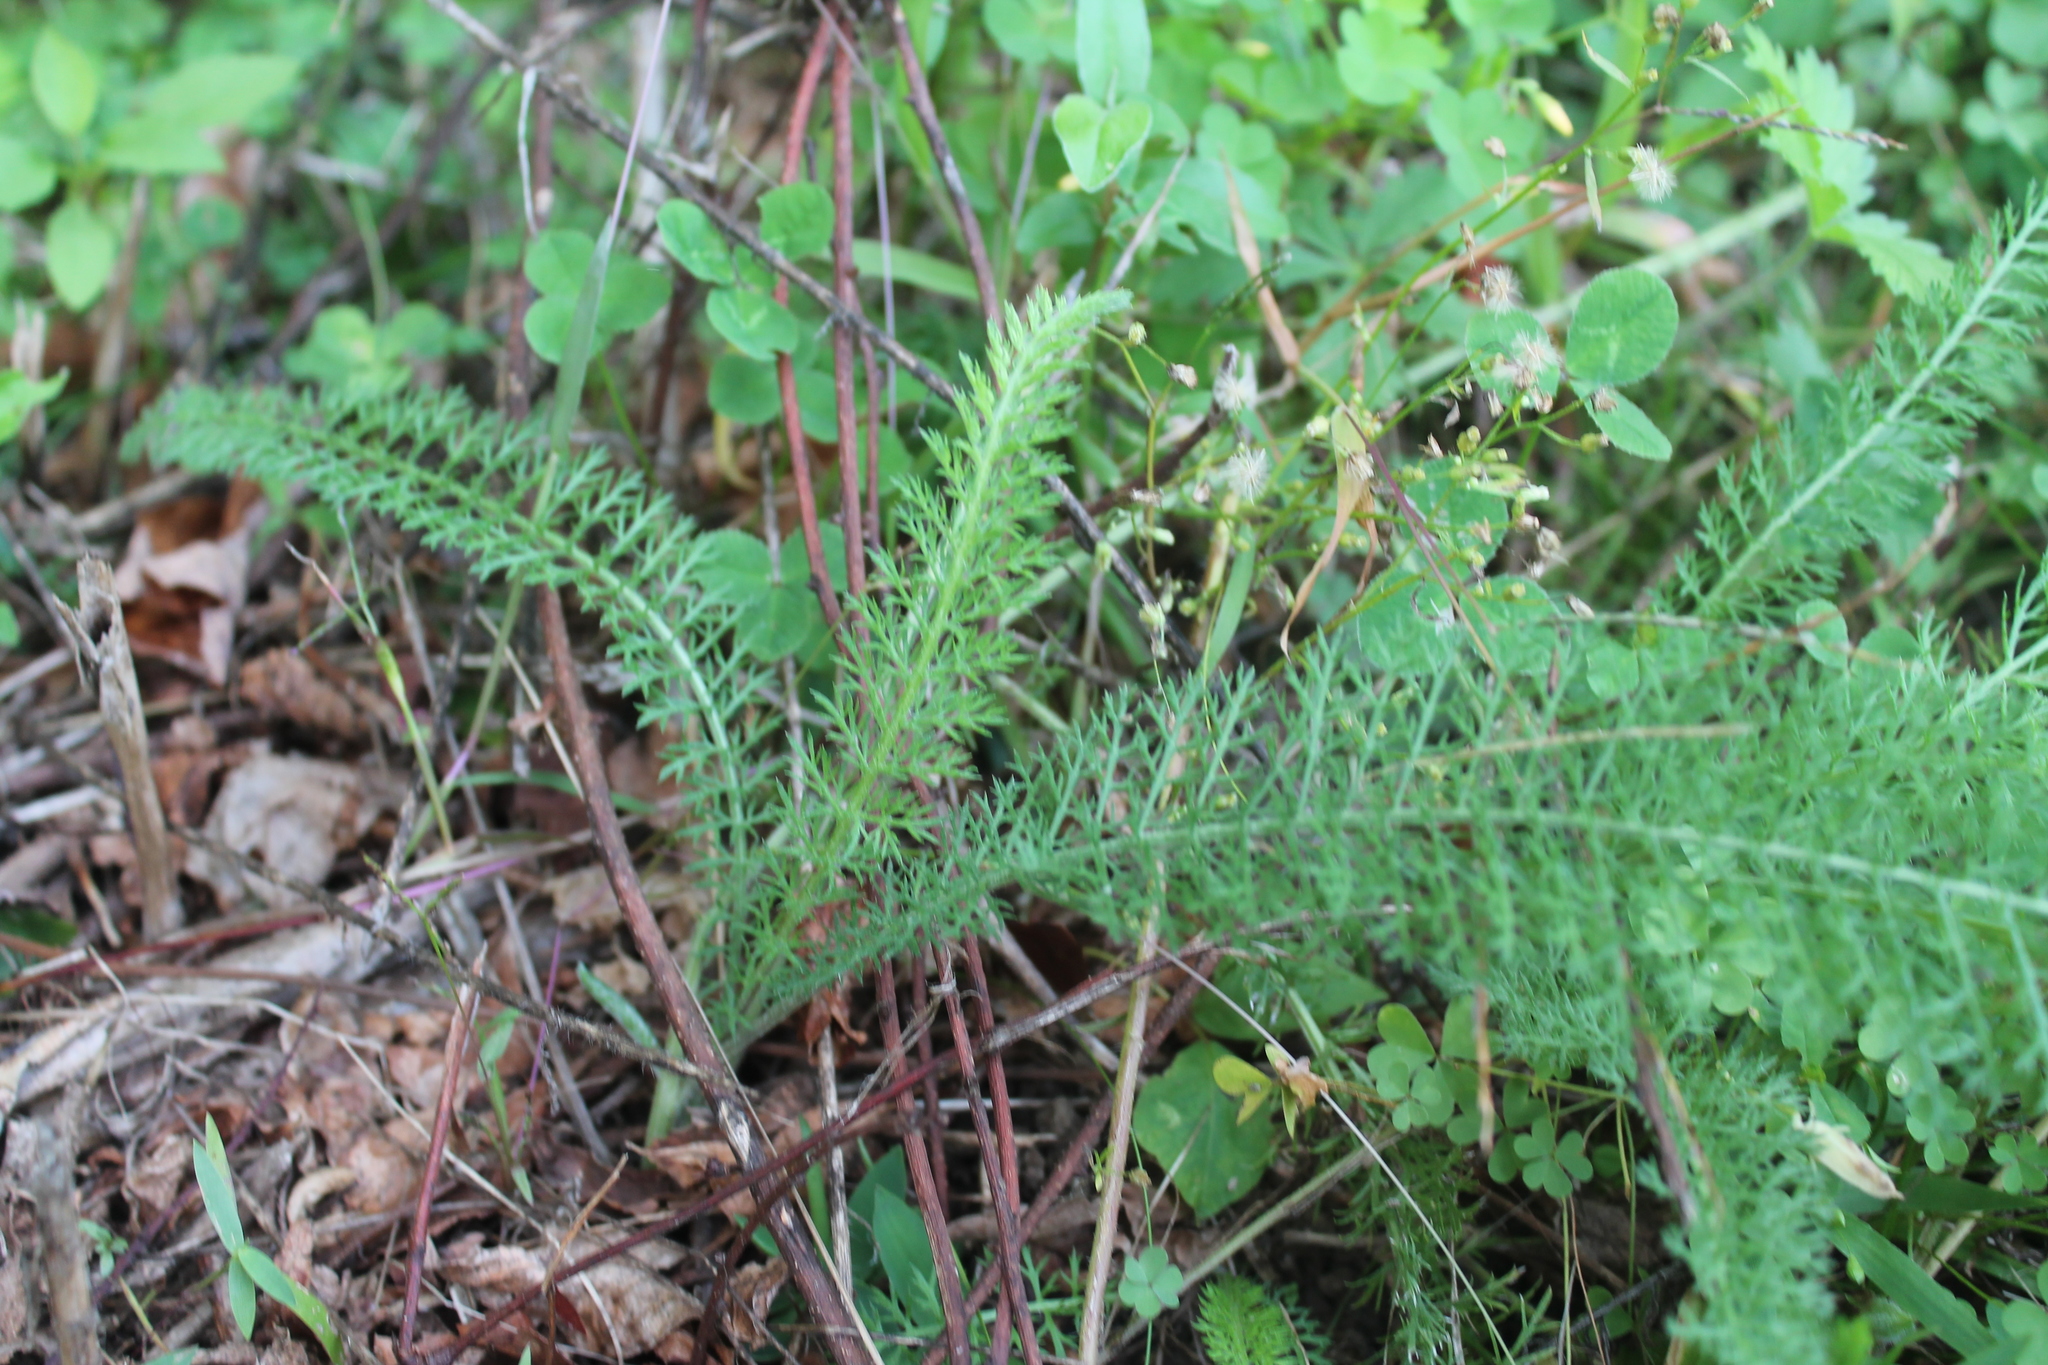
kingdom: Plantae
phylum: Tracheophyta
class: Magnoliopsida
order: Asterales
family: Asteraceae
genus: Achillea
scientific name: Achillea millefolium
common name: Yarrow
